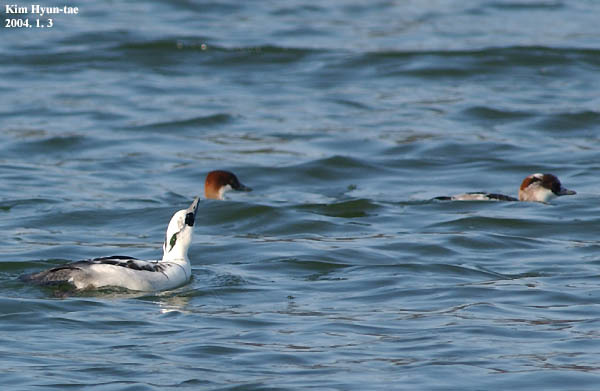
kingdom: Animalia
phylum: Chordata
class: Aves
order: Anseriformes
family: Anatidae
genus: Mergellus
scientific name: Mergellus albellus
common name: Smew
